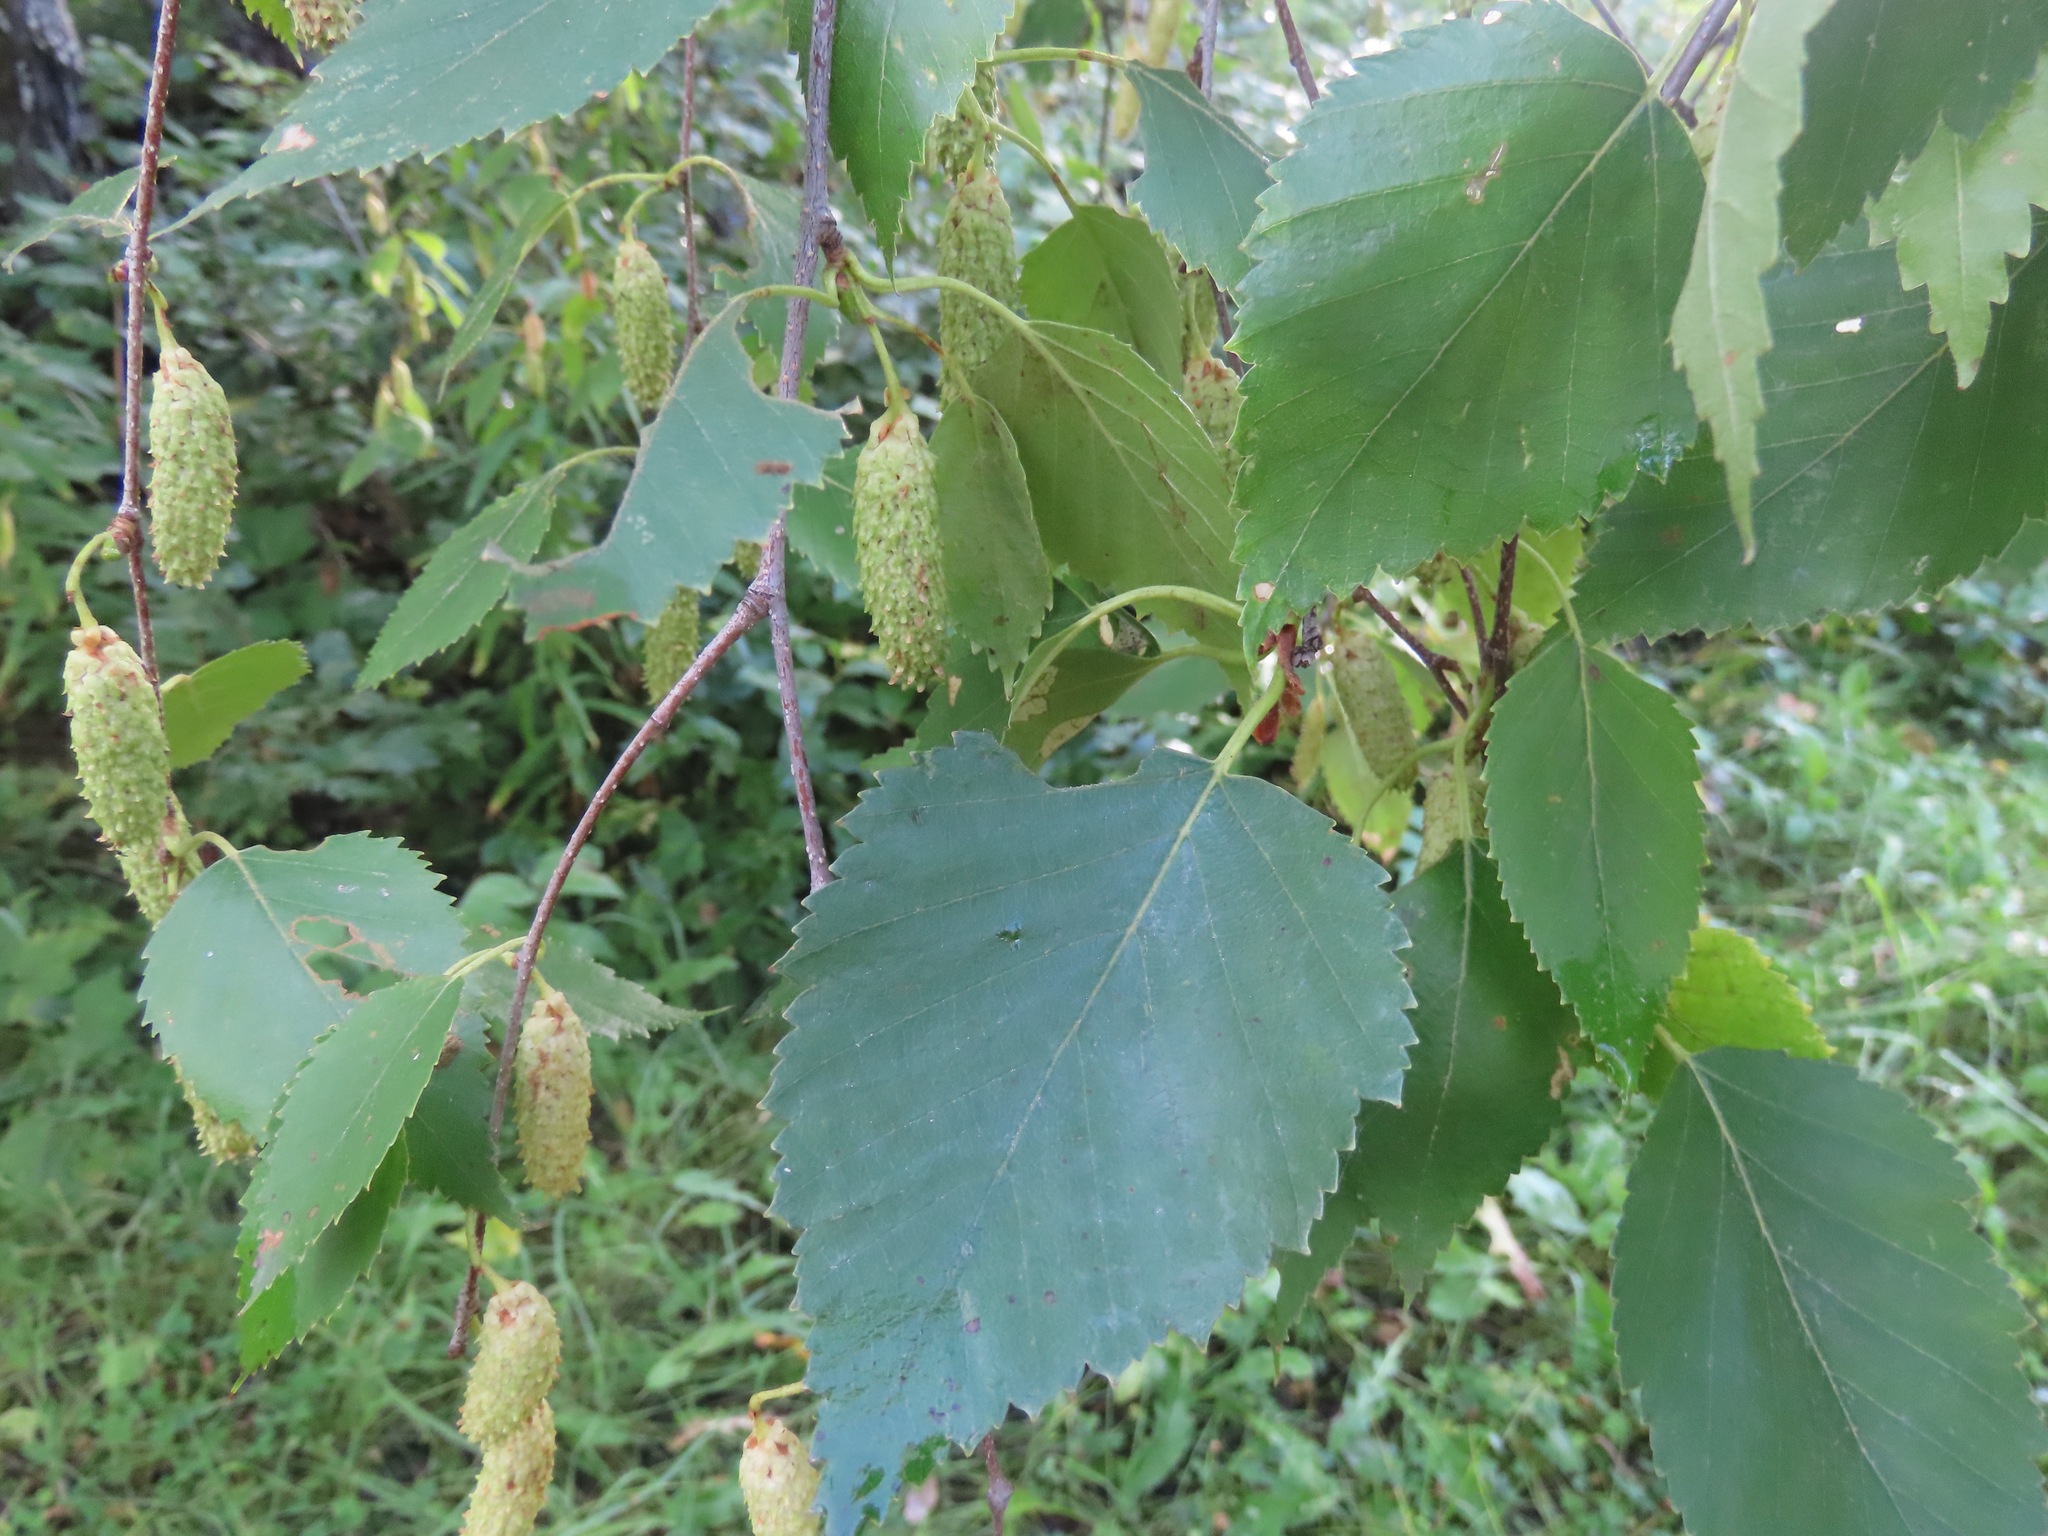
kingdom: Plantae
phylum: Tracheophyta
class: Magnoliopsida
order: Fagales
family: Betulaceae
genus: Betula
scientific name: Betula papyrifera
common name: Paper birch
